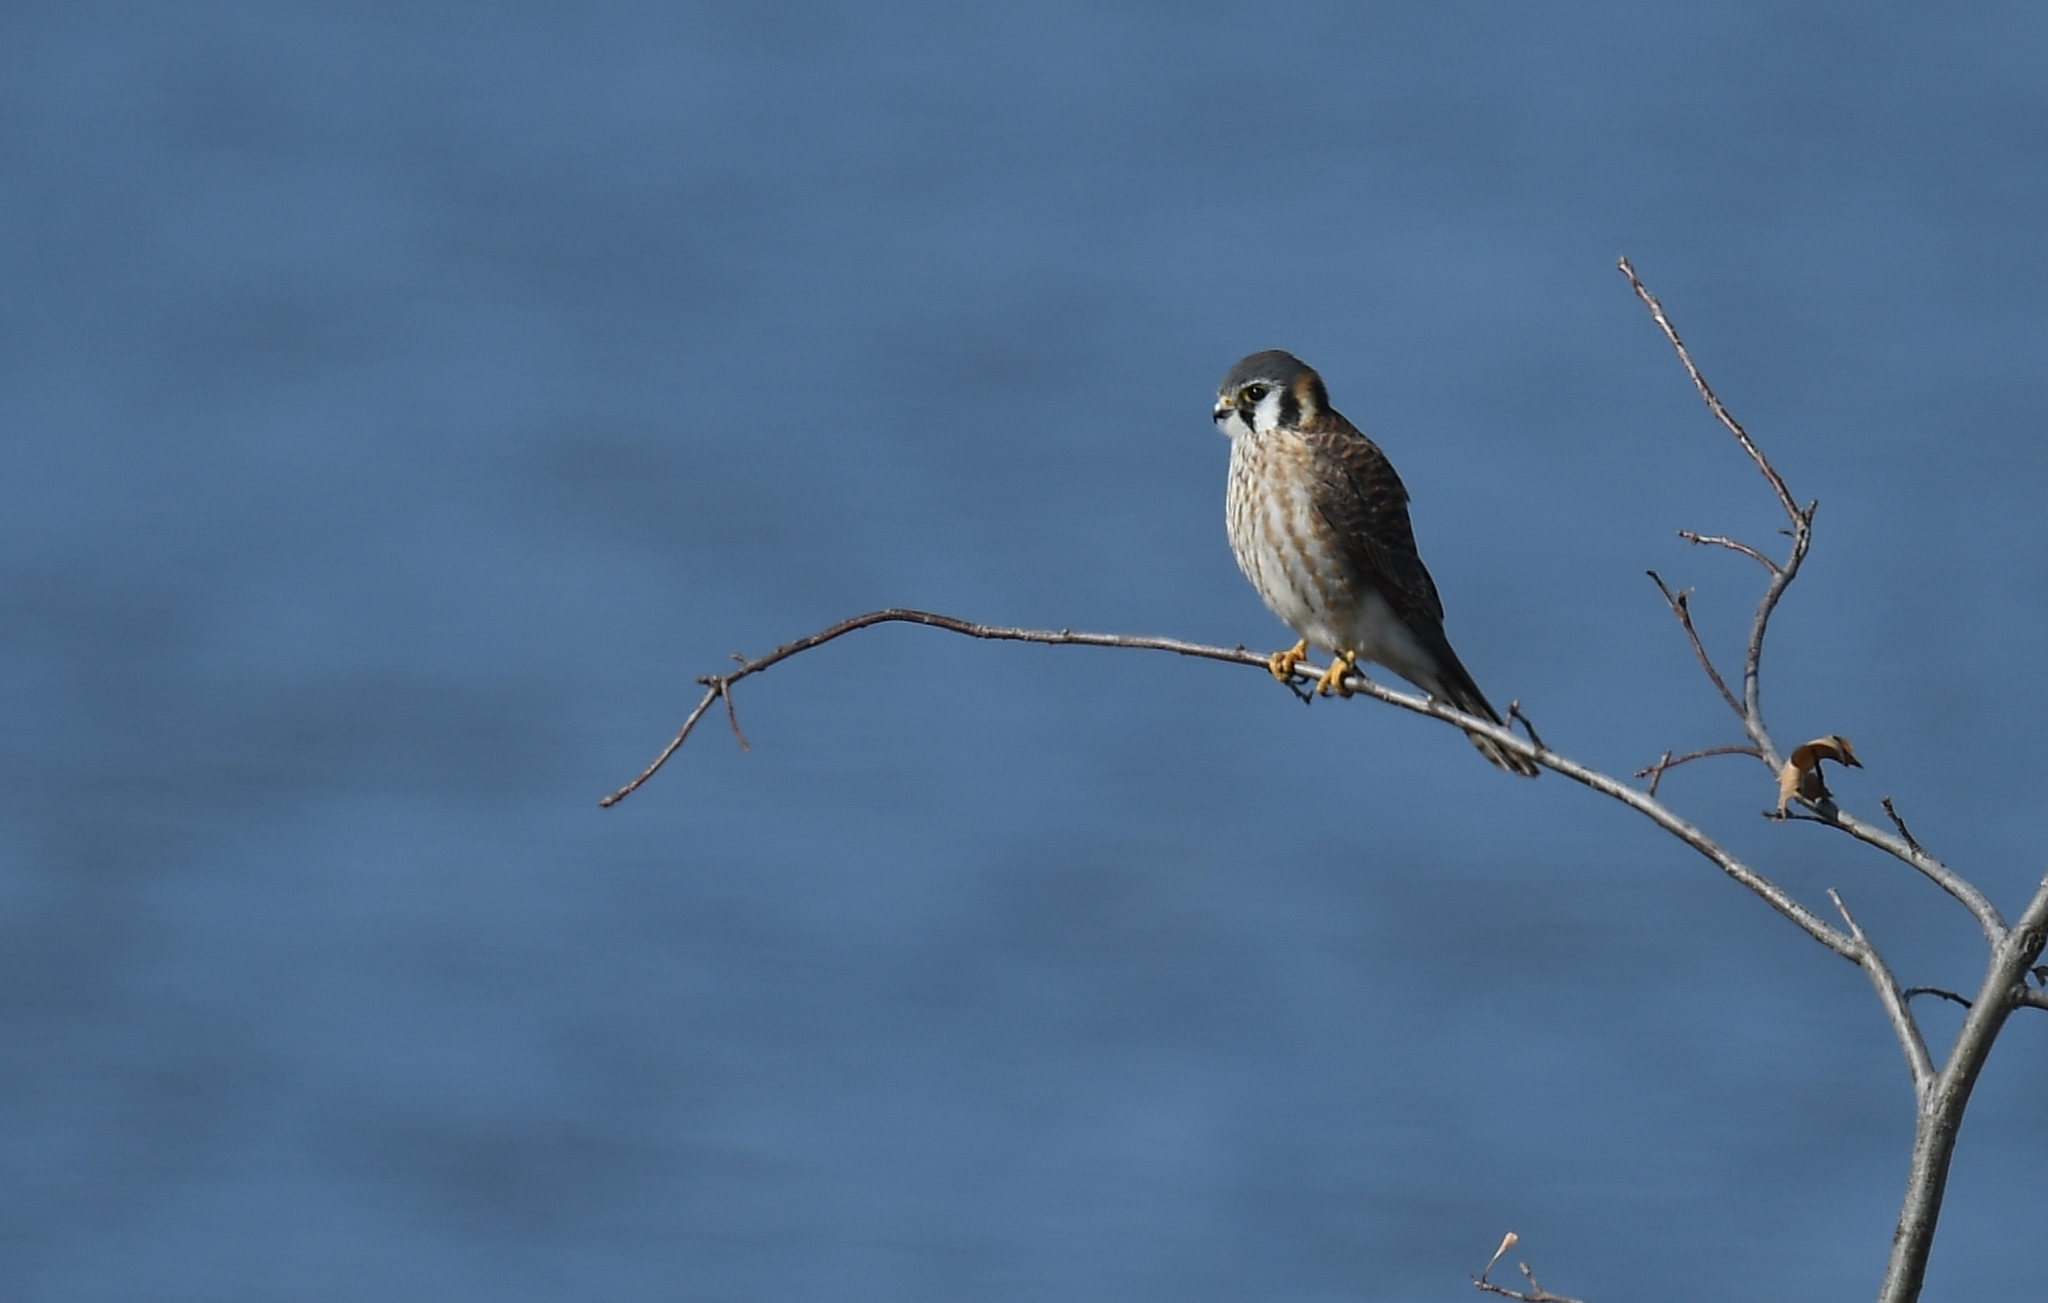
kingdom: Animalia
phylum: Chordata
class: Aves
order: Falconiformes
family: Falconidae
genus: Falco
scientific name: Falco sparverius
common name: American kestrel
